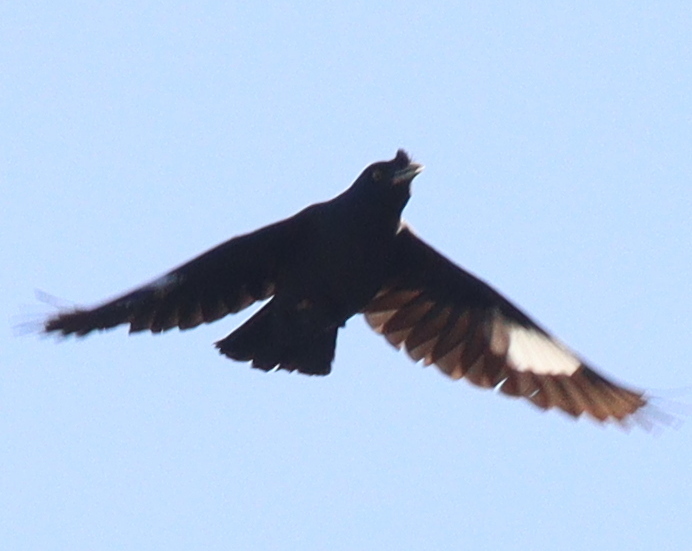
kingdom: Animalia
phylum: Chordata
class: Aves
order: Passeriformes
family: Sturnidae
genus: Acridotheres
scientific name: Acridotheres cristatellus
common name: Crested myna
